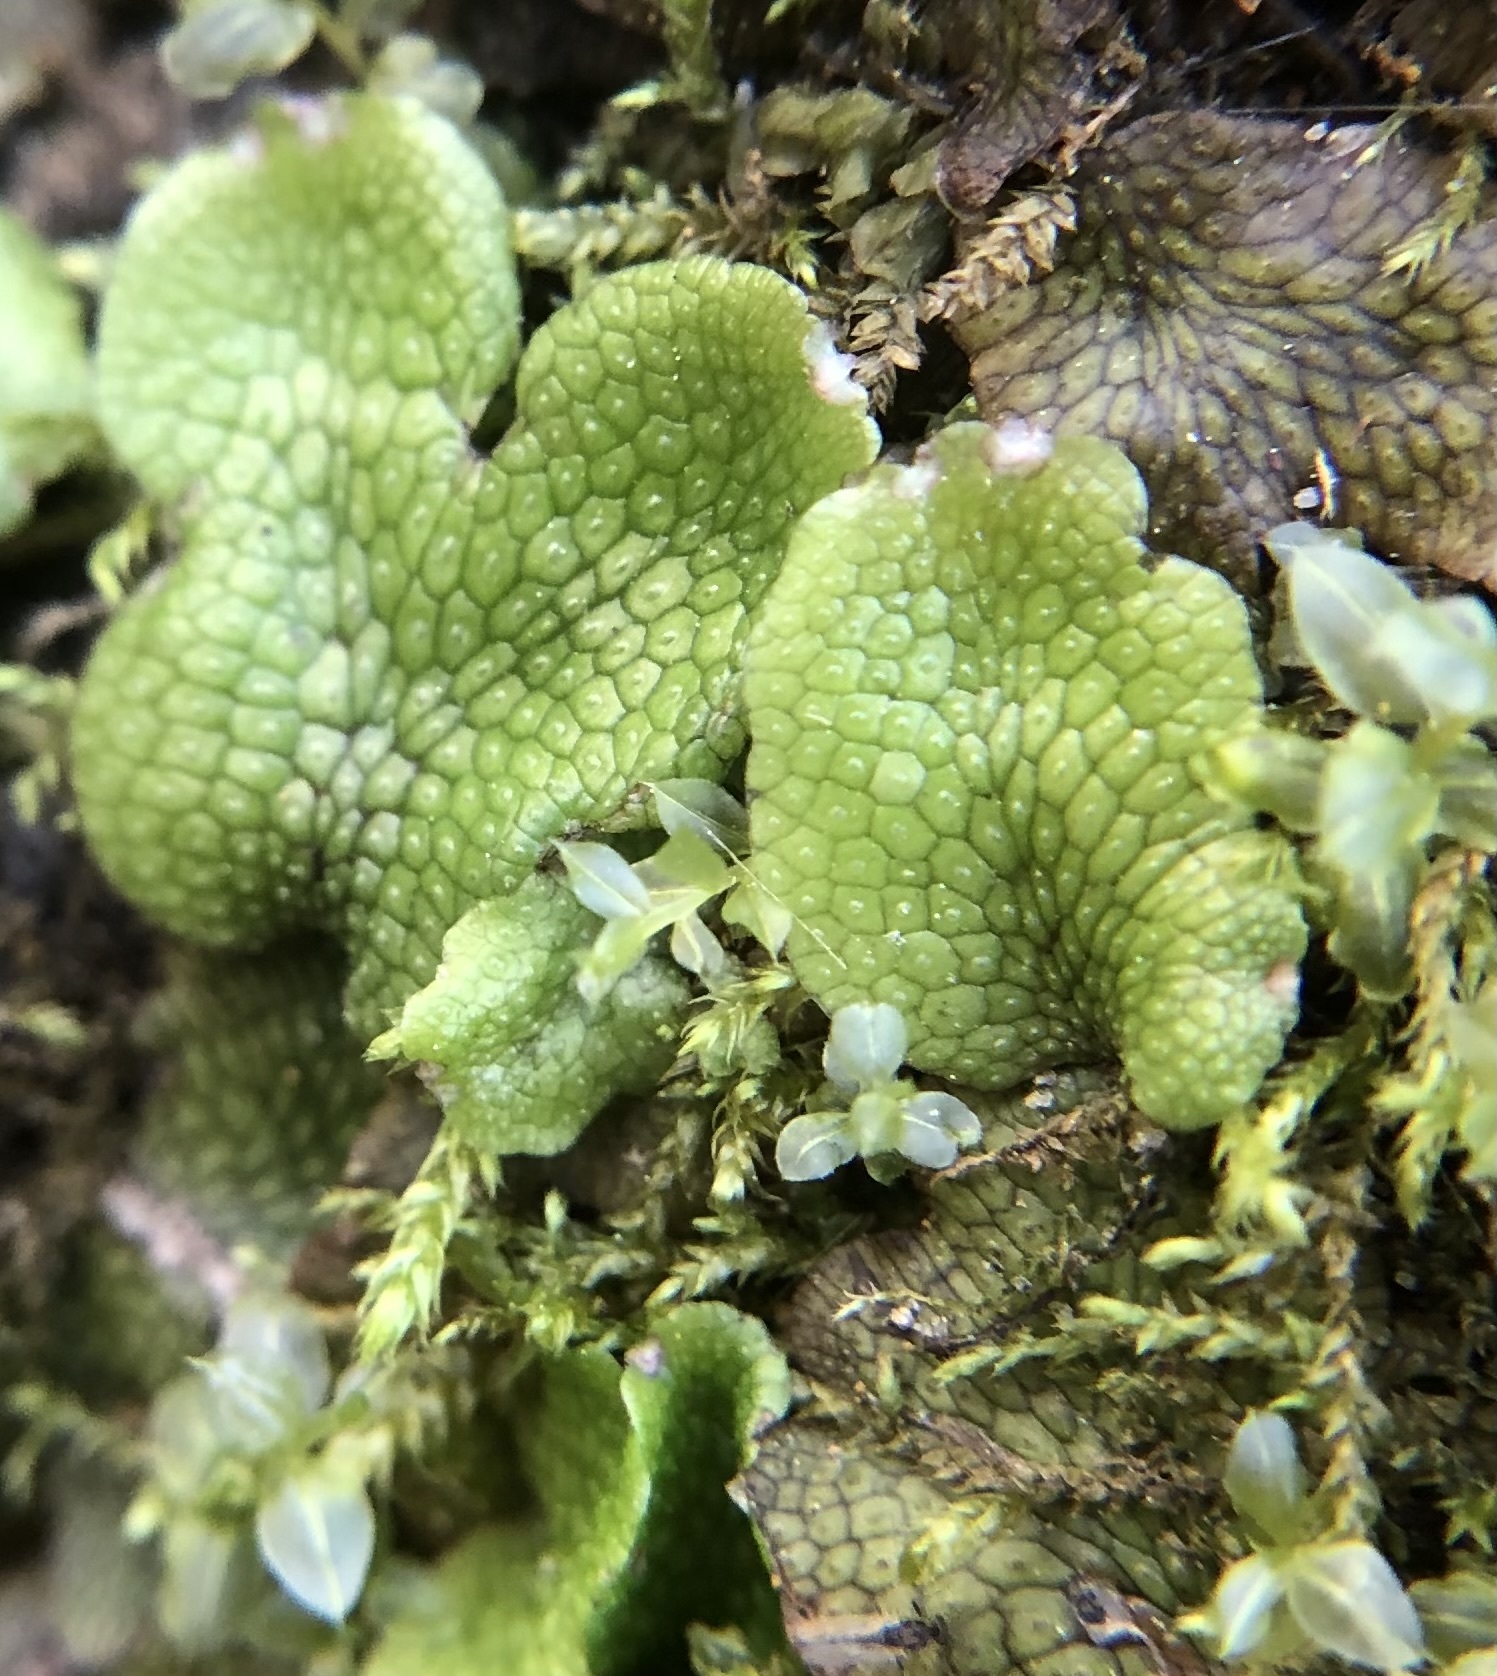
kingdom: Plantae
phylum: Marchantiophyta
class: Marchantiopsida
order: Marchantiales
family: Conocephalaceae
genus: Conocephalum
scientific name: Conocephalum salebrosum
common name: Cat-tongue liverwort
